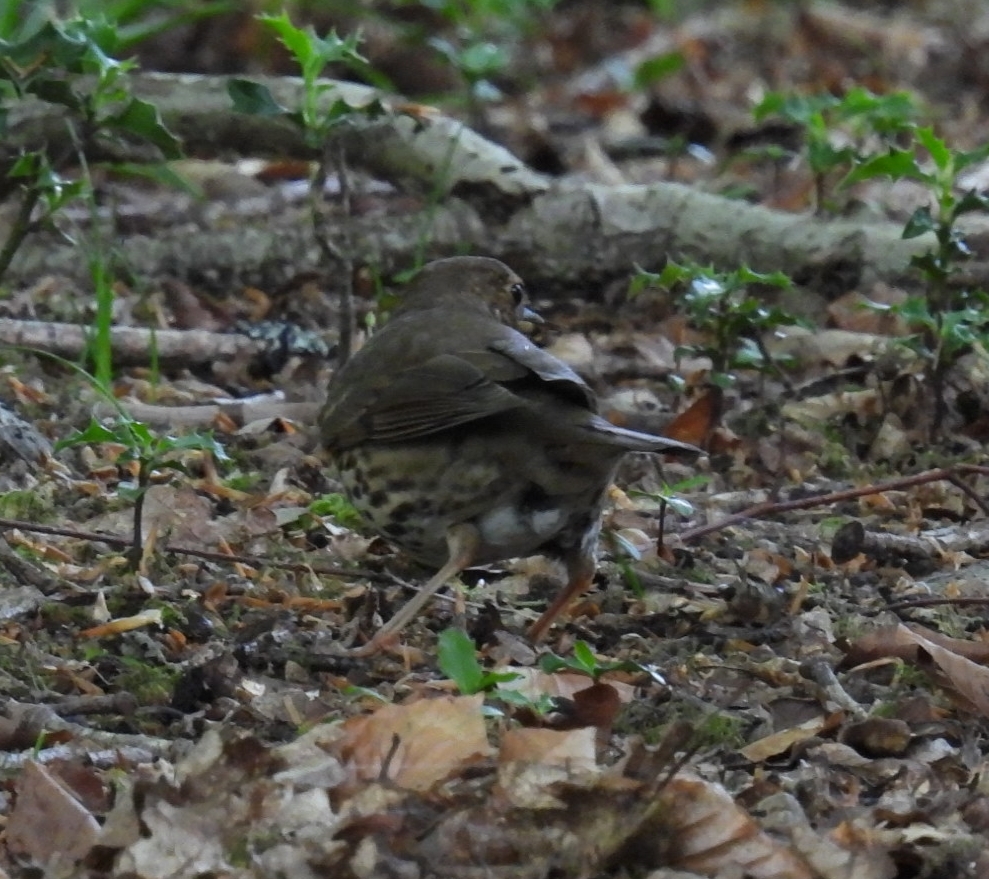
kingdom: Animalia
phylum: Chordata
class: Aves
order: Passeriformes
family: Turdidae
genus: Turdus
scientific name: Turdus philomelos
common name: Song thrush
